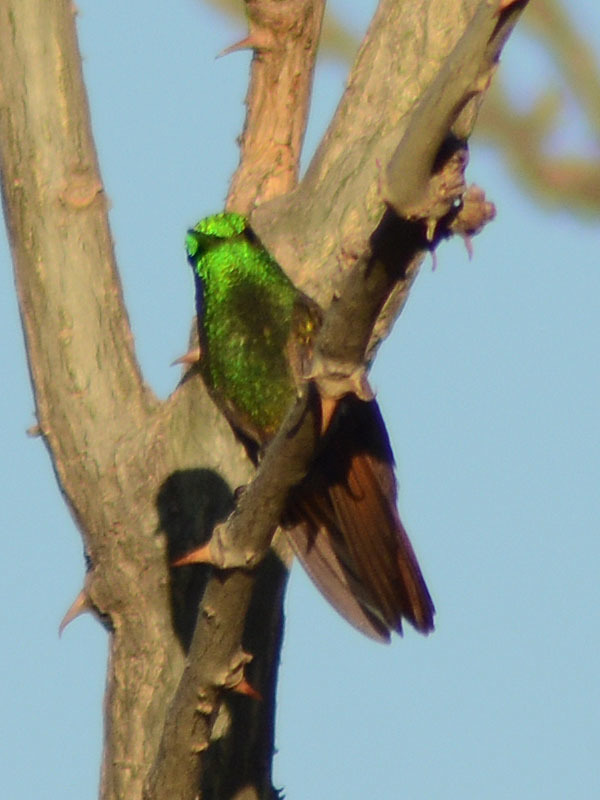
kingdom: Animalia
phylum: Chordata
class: Aves
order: Apodiformes
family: Trochilidae
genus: Saucerottia
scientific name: Saucerottia beryllina
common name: Berylline hummingbird
